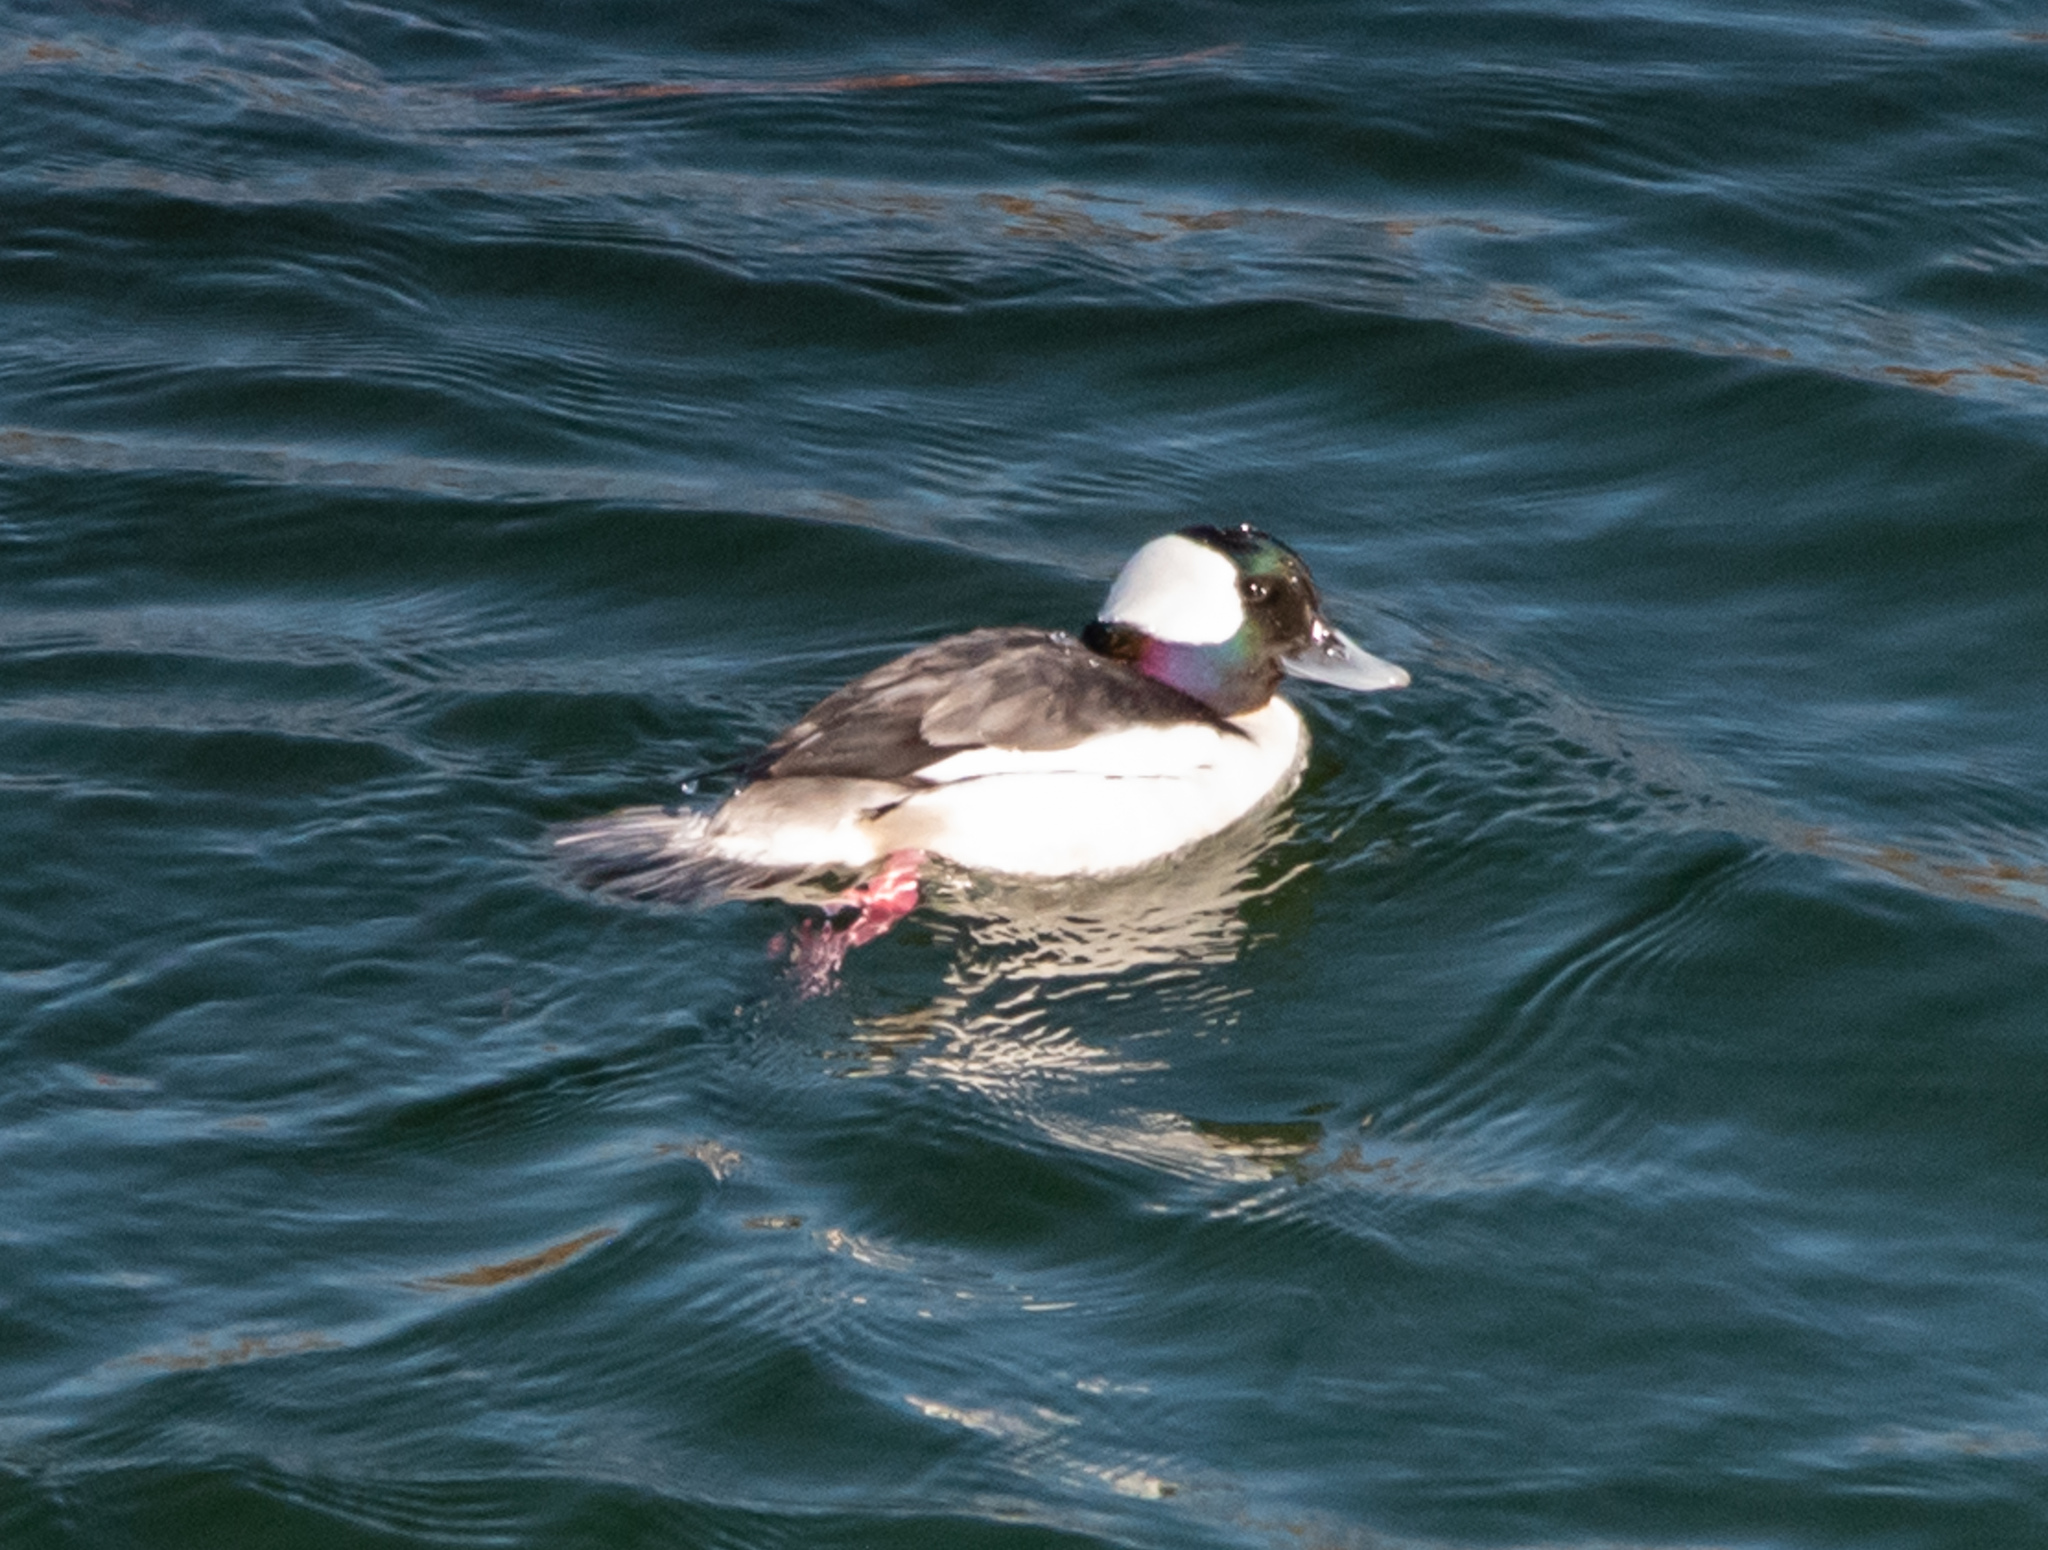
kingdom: Animalia
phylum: Chordata
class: Aves
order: Anseriformes
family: Anatidae
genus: Bucephala
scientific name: Bucephala albeola
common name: Bufflehead
